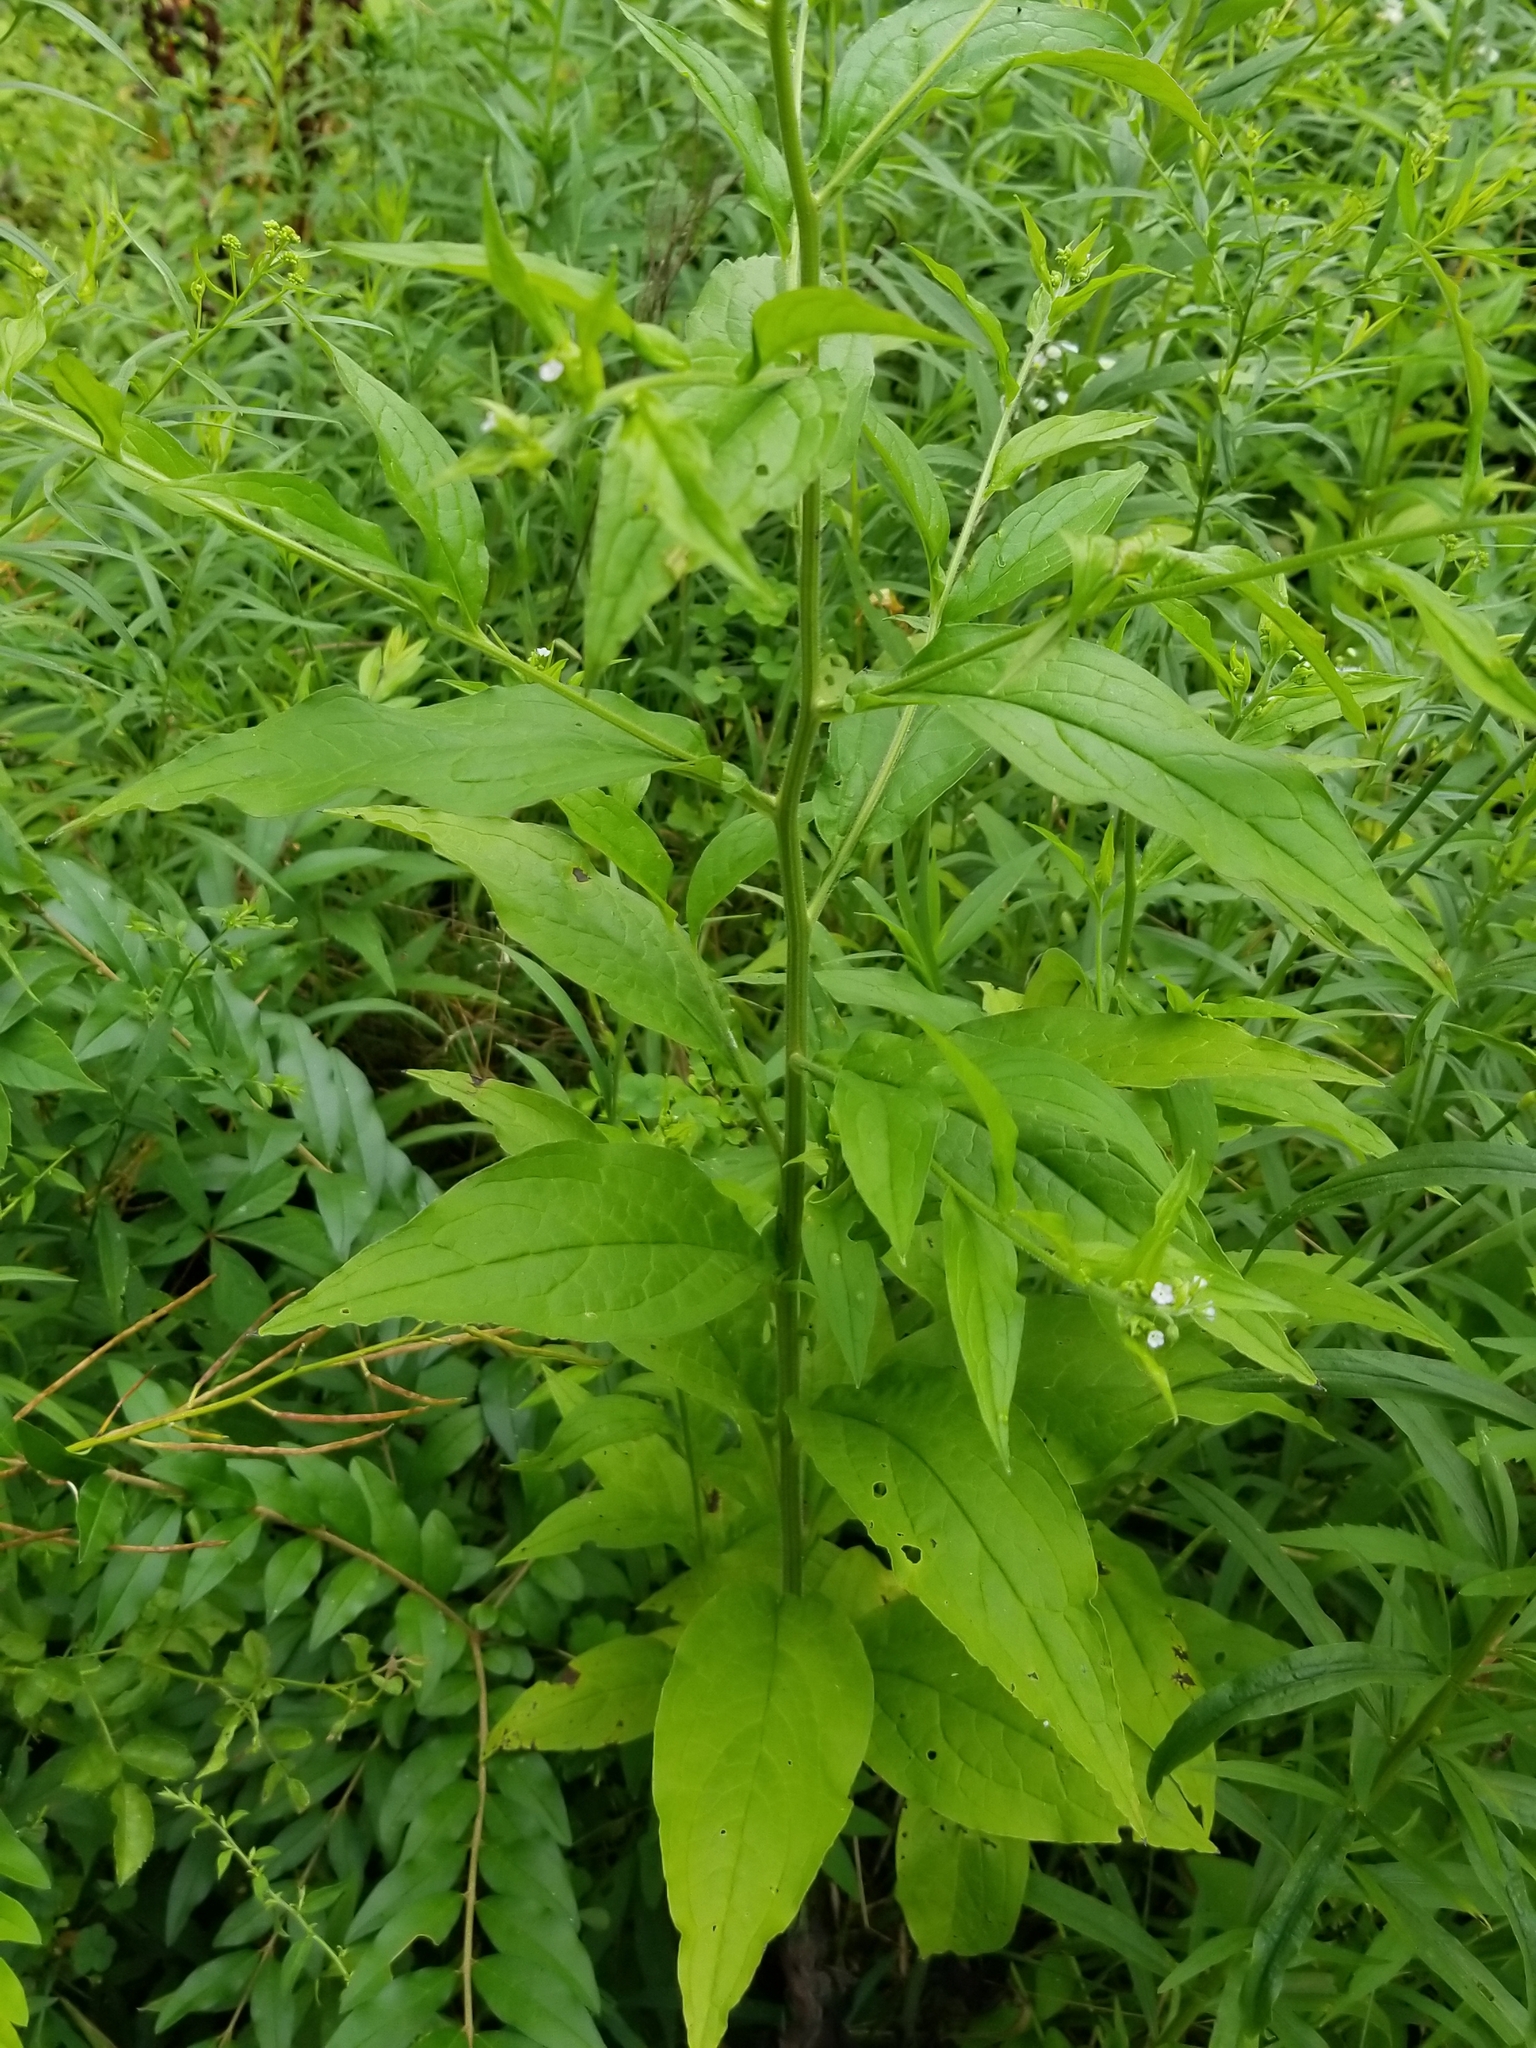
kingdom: Plantae
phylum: Tracheophyta
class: Magnoliopsida
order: Boraginales
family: Boraginaceae
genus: Hackelia
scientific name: Hackelia virginiana
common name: Beggar's-lice
